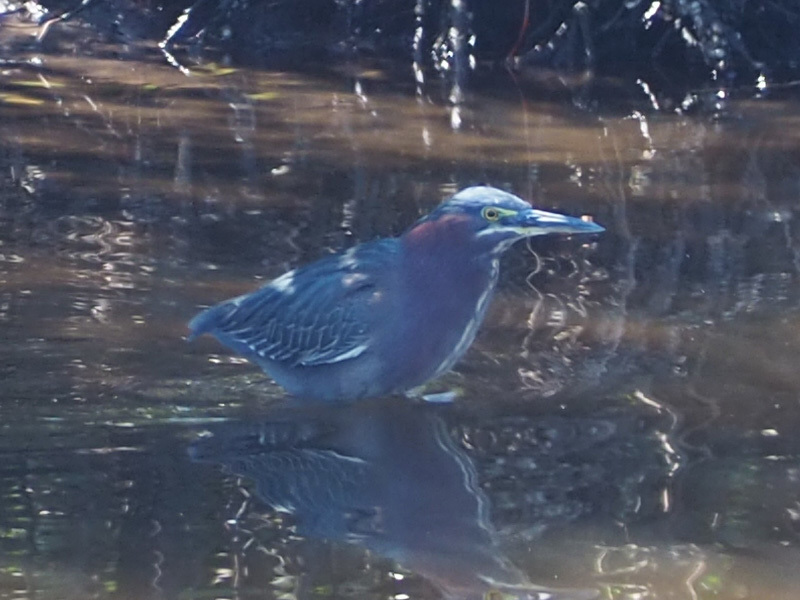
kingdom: Animalia
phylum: Chordata
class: Aves
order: Pelecaniformes
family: Ardeidae
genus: Butorides
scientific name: Butorides virescens
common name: Green heron
